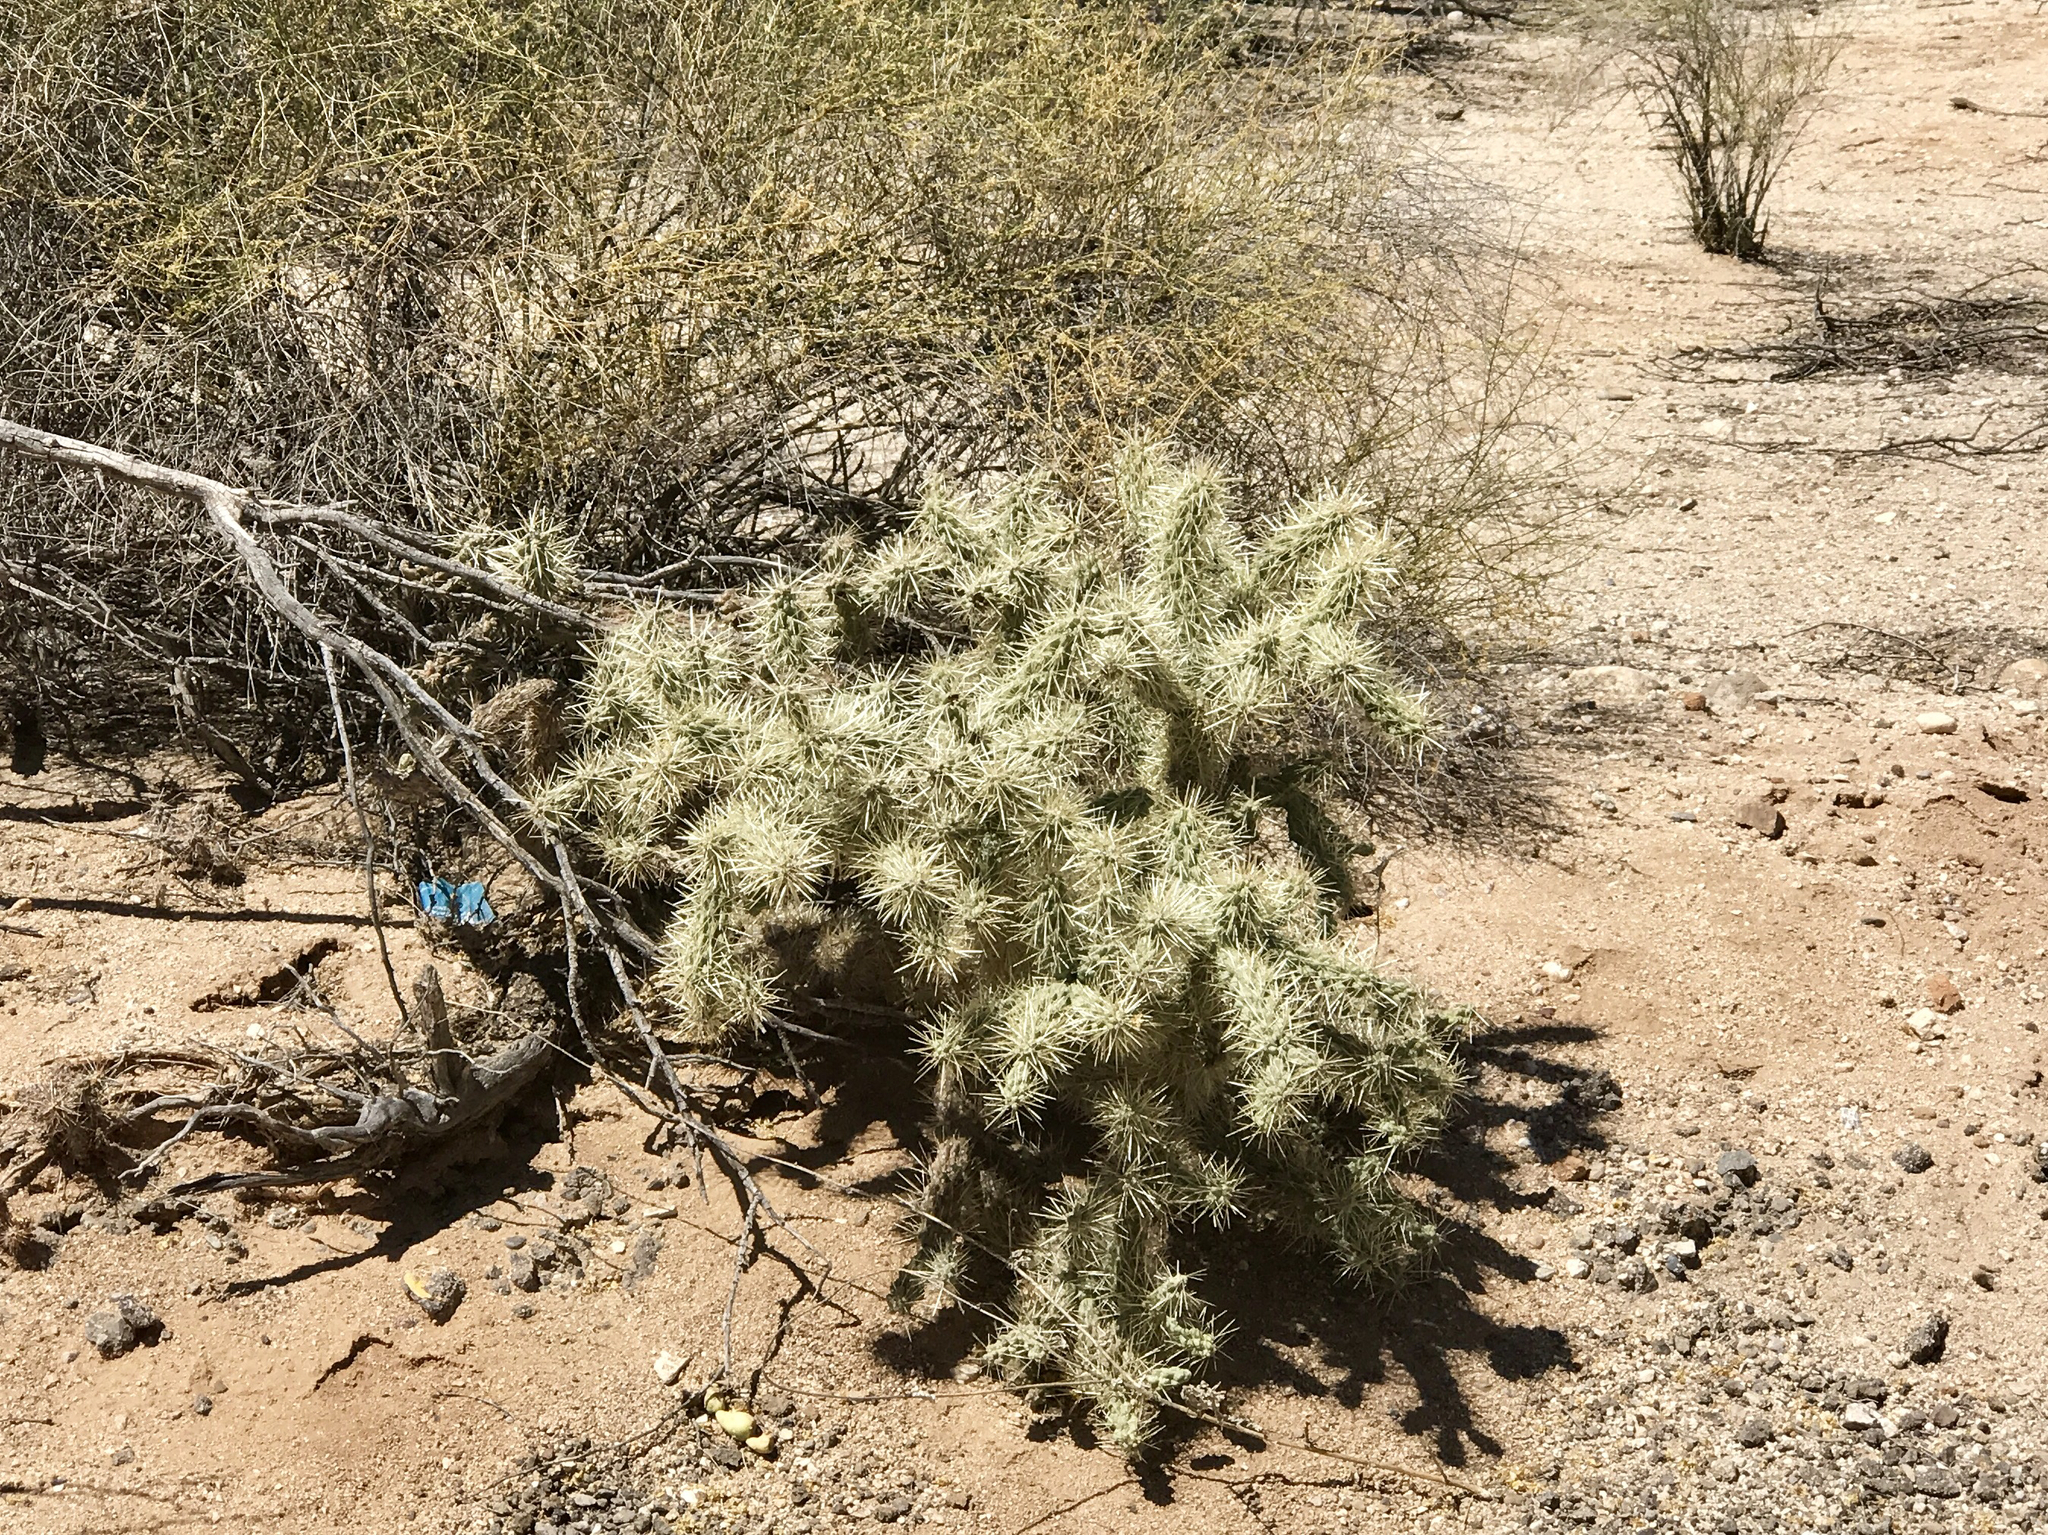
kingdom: Plantae
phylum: Tracheophyta
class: Magnoliopsida
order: Caryophyllales
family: Cactaceae
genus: Cylindropuntia
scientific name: Cylindropuntia fulgida
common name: Jumping cholla
